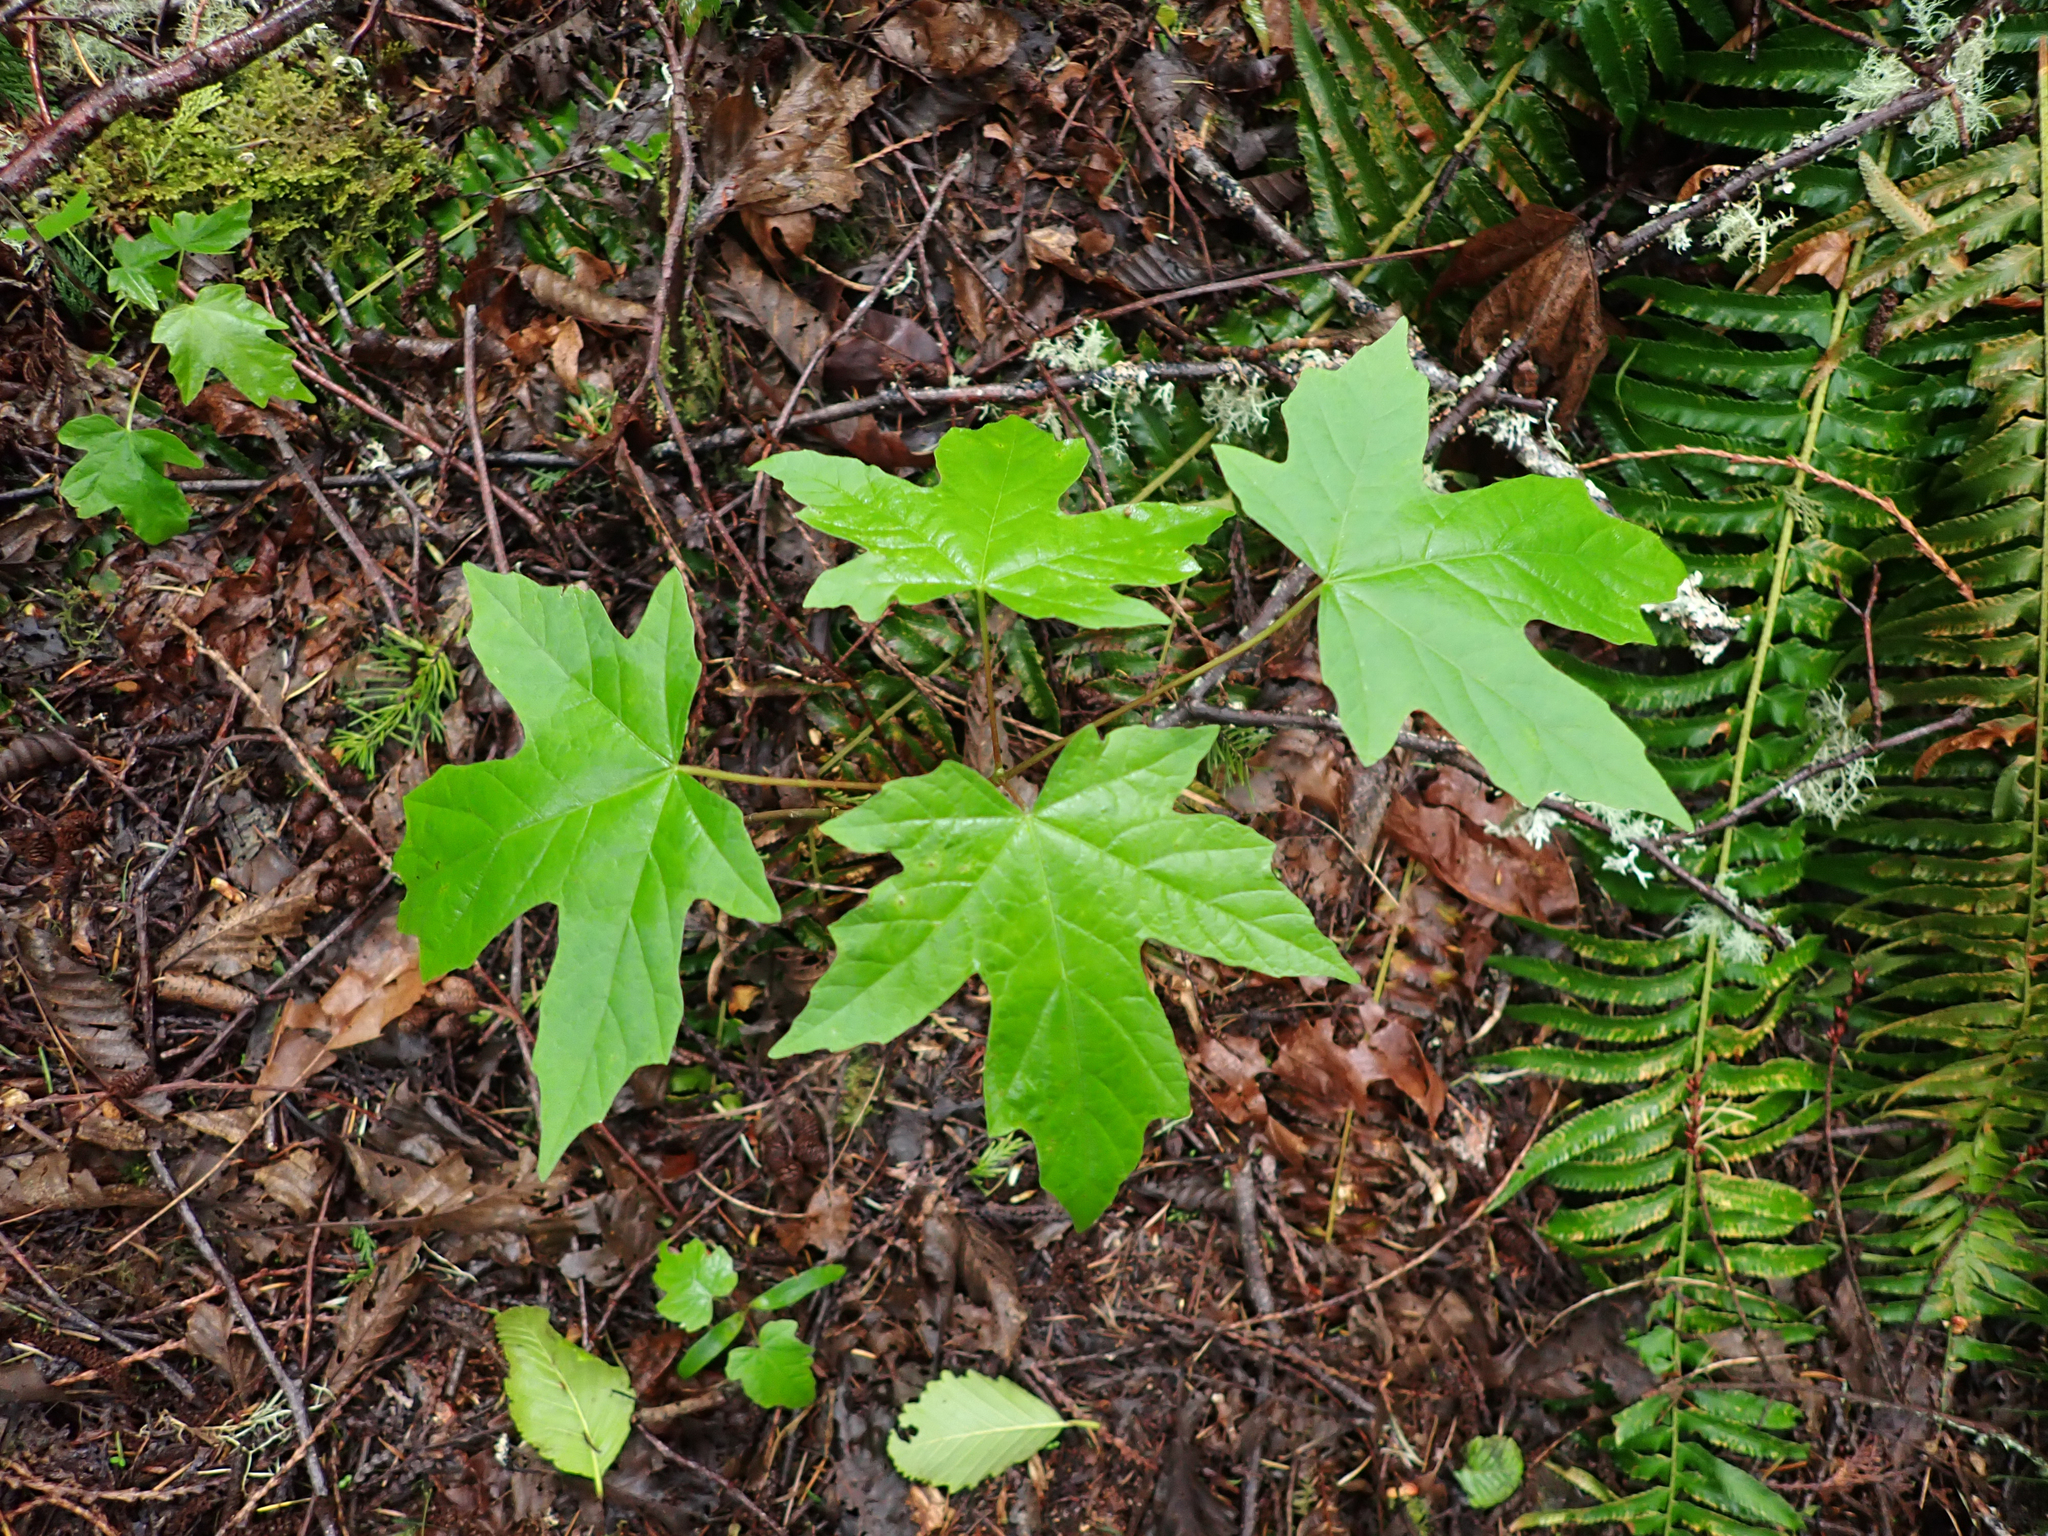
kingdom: Plantae
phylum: Tracheophyta
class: Magnoliopsida
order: Sapindales
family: Sapindaceae
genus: Acer
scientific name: Acer macrophyllum
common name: Oregon maple
